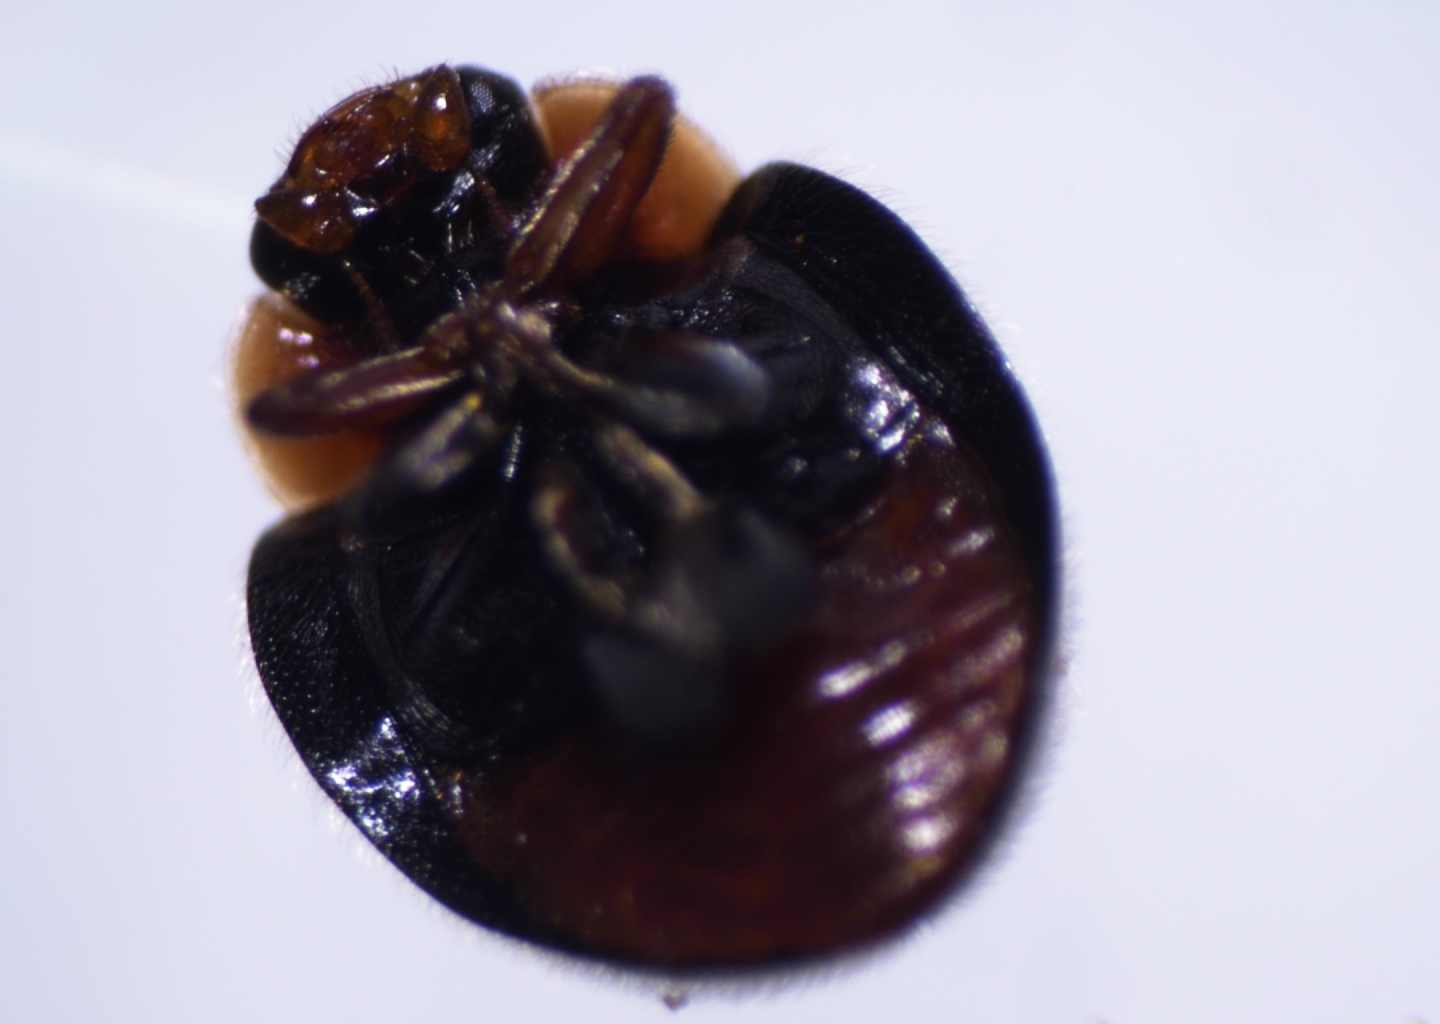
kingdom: Animalia
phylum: Arthropoda
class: Insecta
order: Coleoptera
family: Coccinellidae
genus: Scymnodes
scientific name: Scymnodes lividigaster
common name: Yellowshouldered lady beetle
